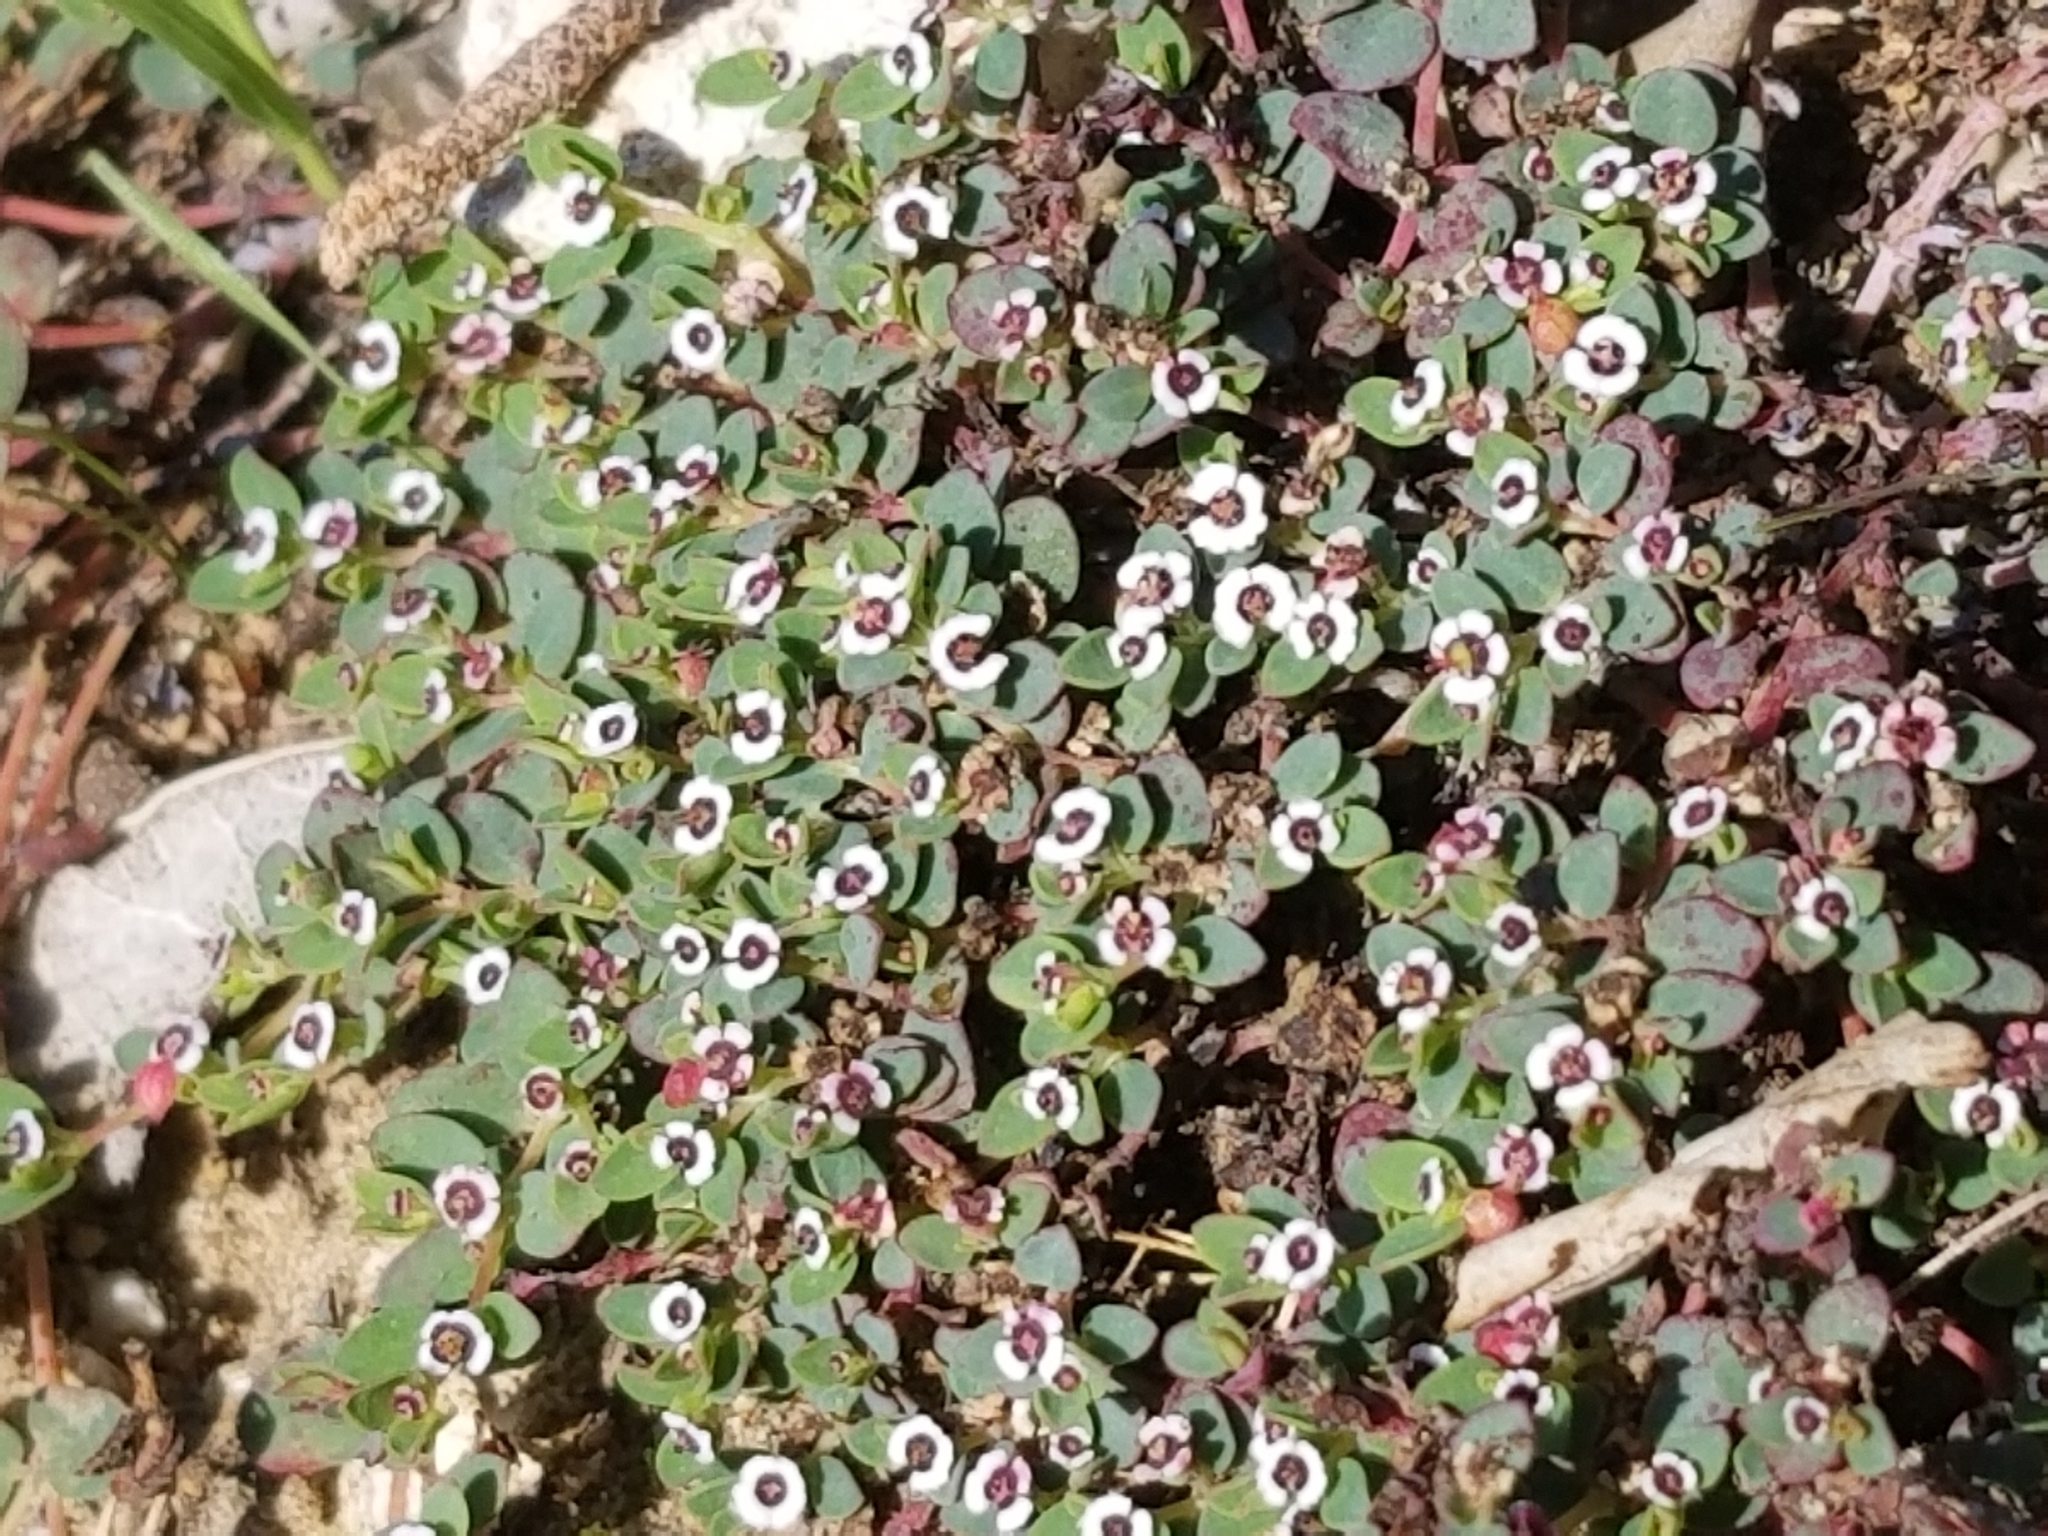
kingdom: Plantae
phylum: Tracheophyta
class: Magnoliopsida
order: Malpighiales
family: Euphorbiaceae
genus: Euphorbia
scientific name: Euphorbia polycarpa
